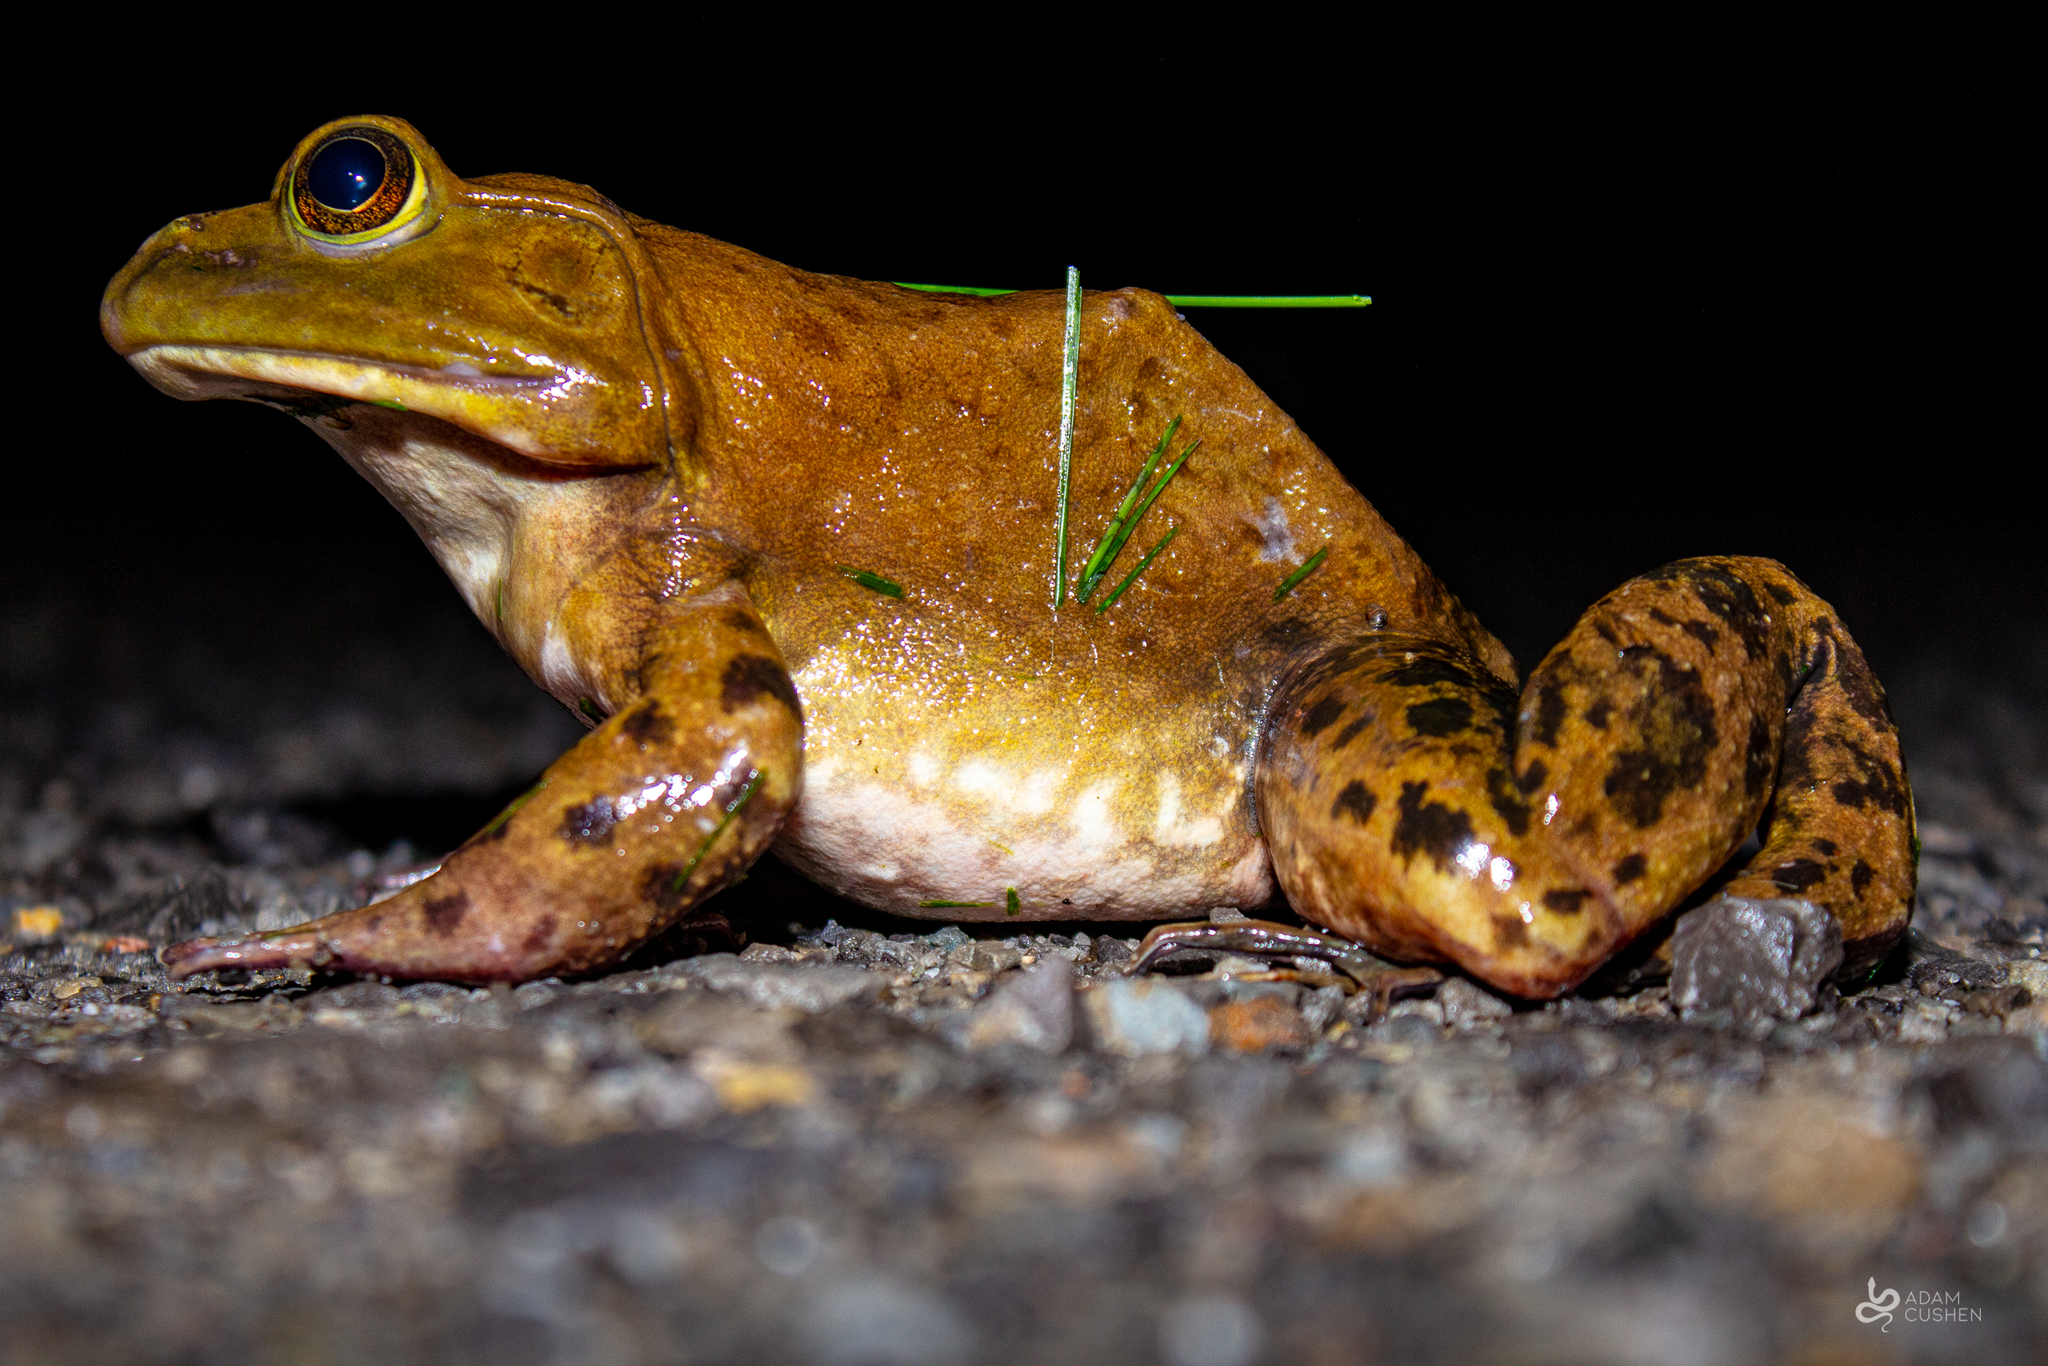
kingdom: Animalia
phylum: Chordata
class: Amphibia
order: Anura
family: Ranidae
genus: Lithobates
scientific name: Lithobates catesbeianus
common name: American bullfrog
